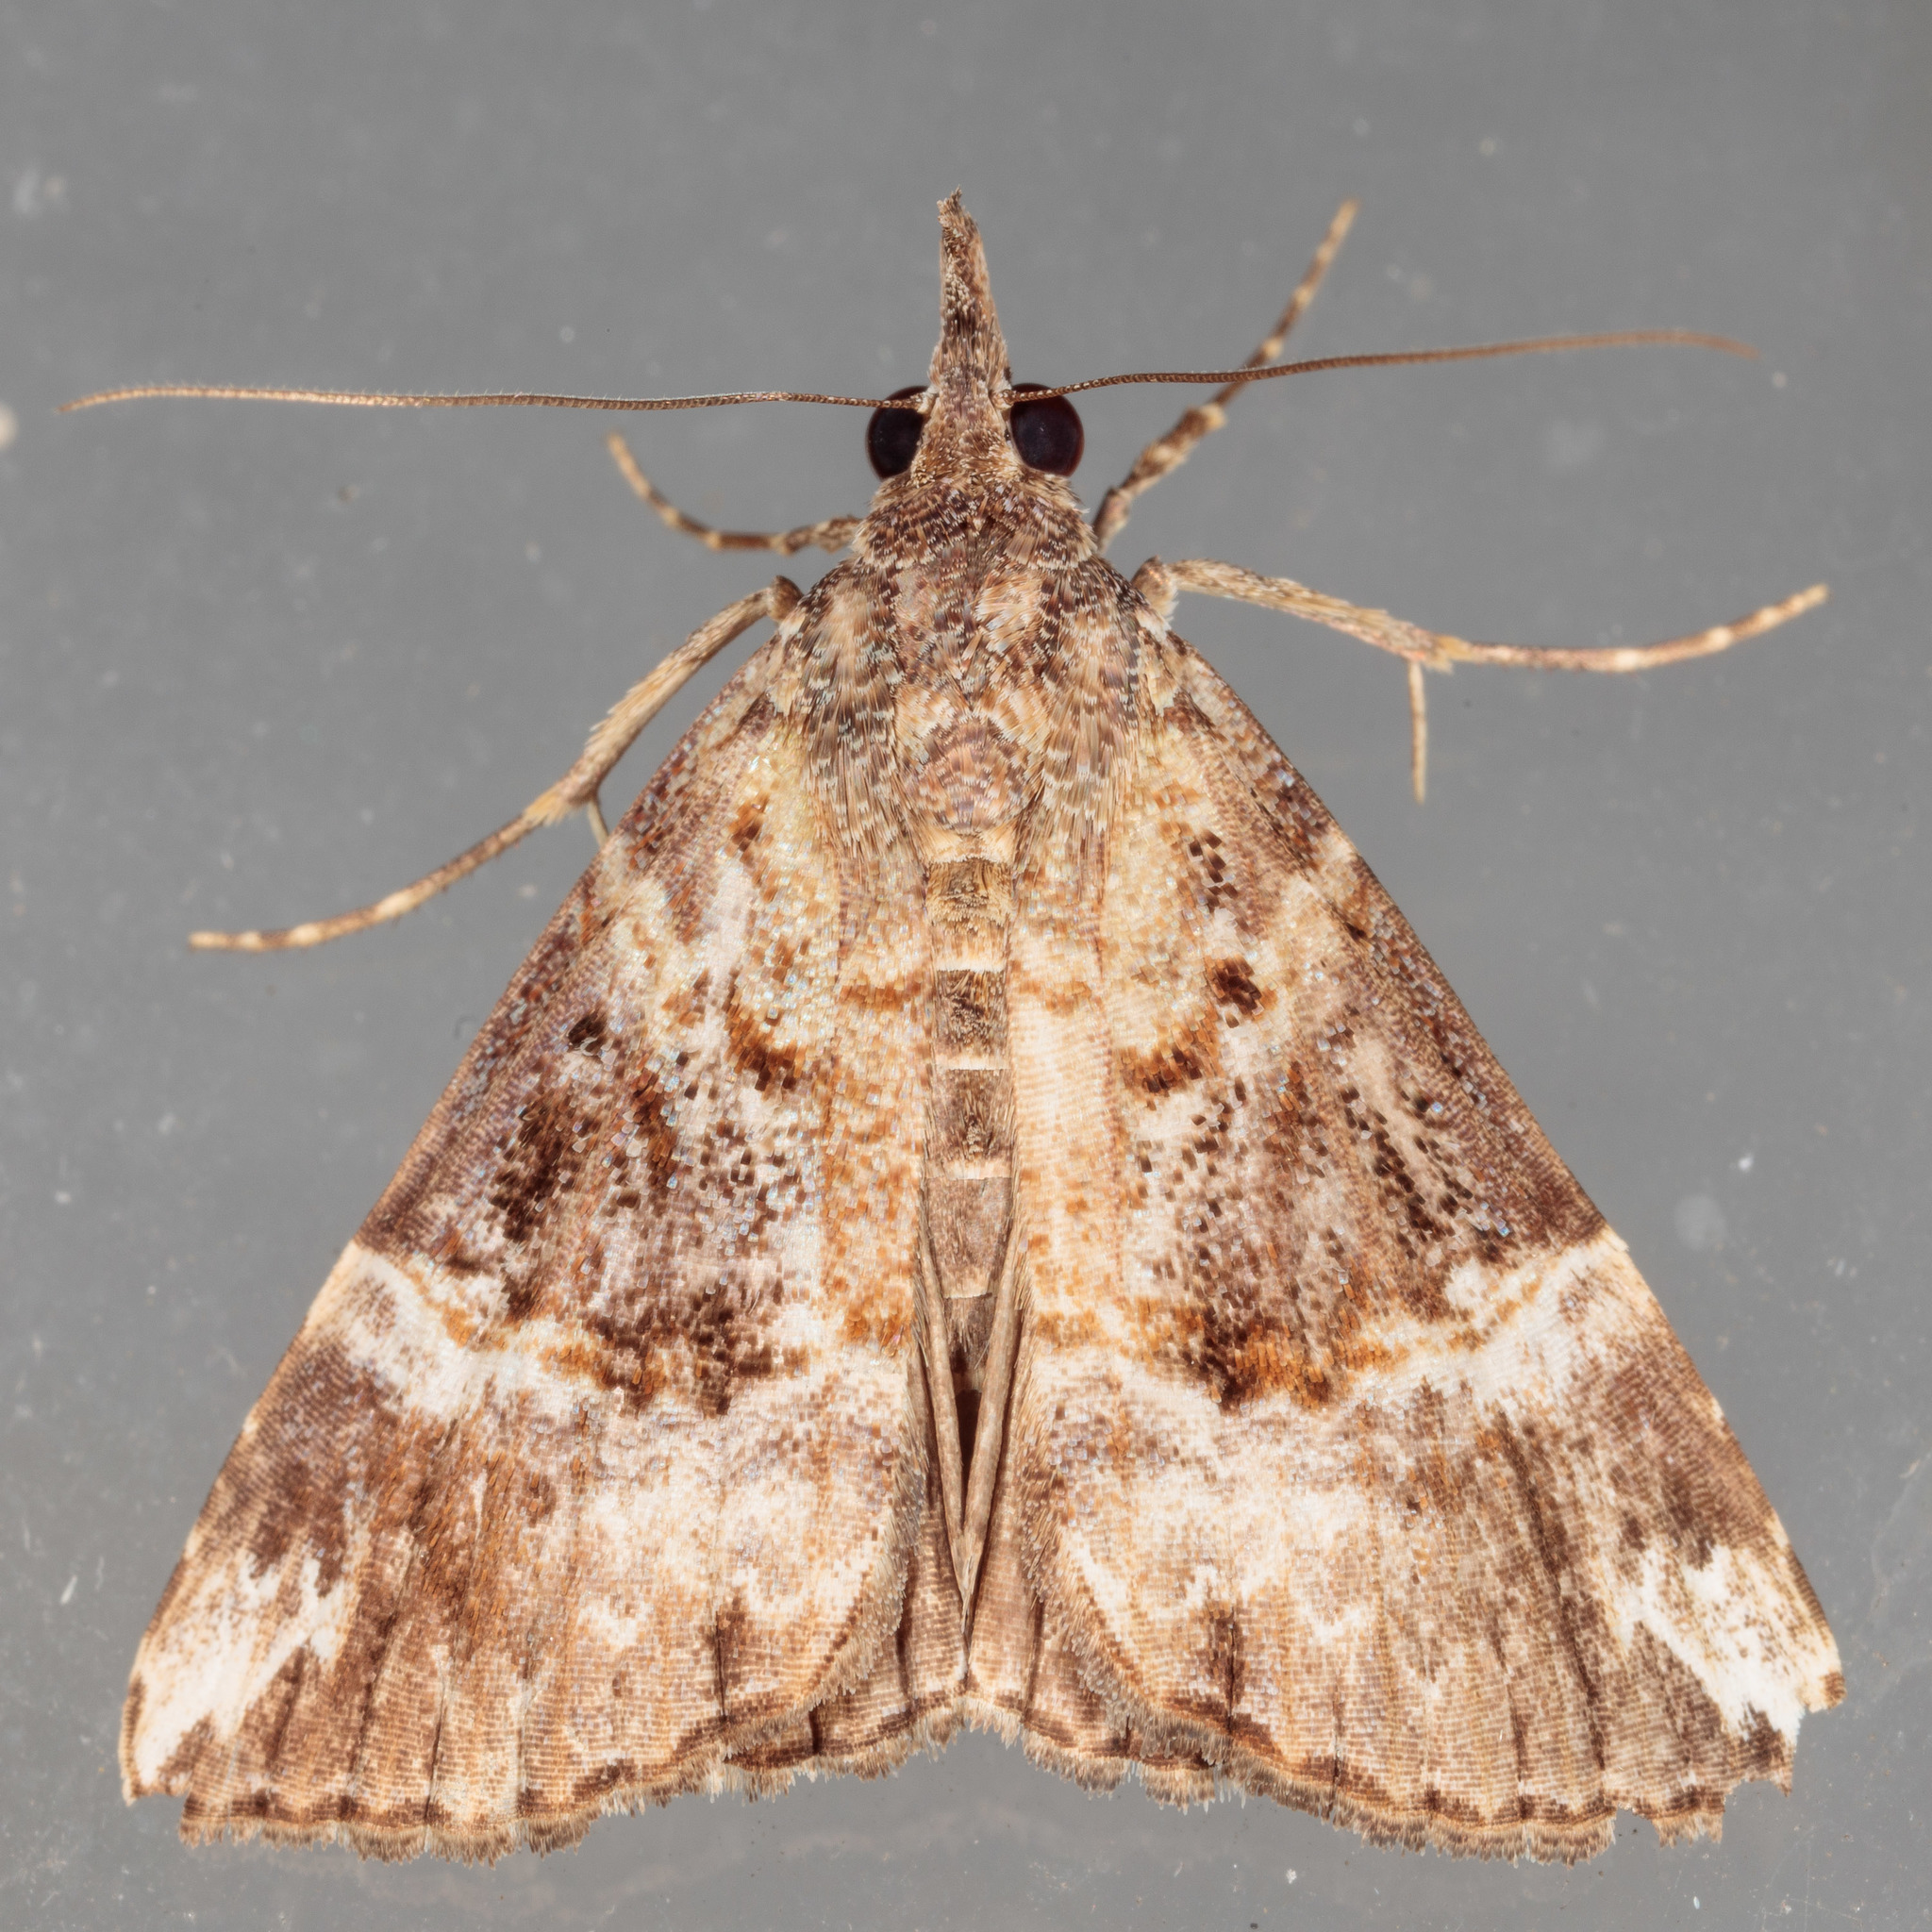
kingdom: Animalia
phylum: Arthropoda
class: Insecta
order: Lepidoptera
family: Erebidae
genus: Hypena
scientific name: Hypena vetustalis
